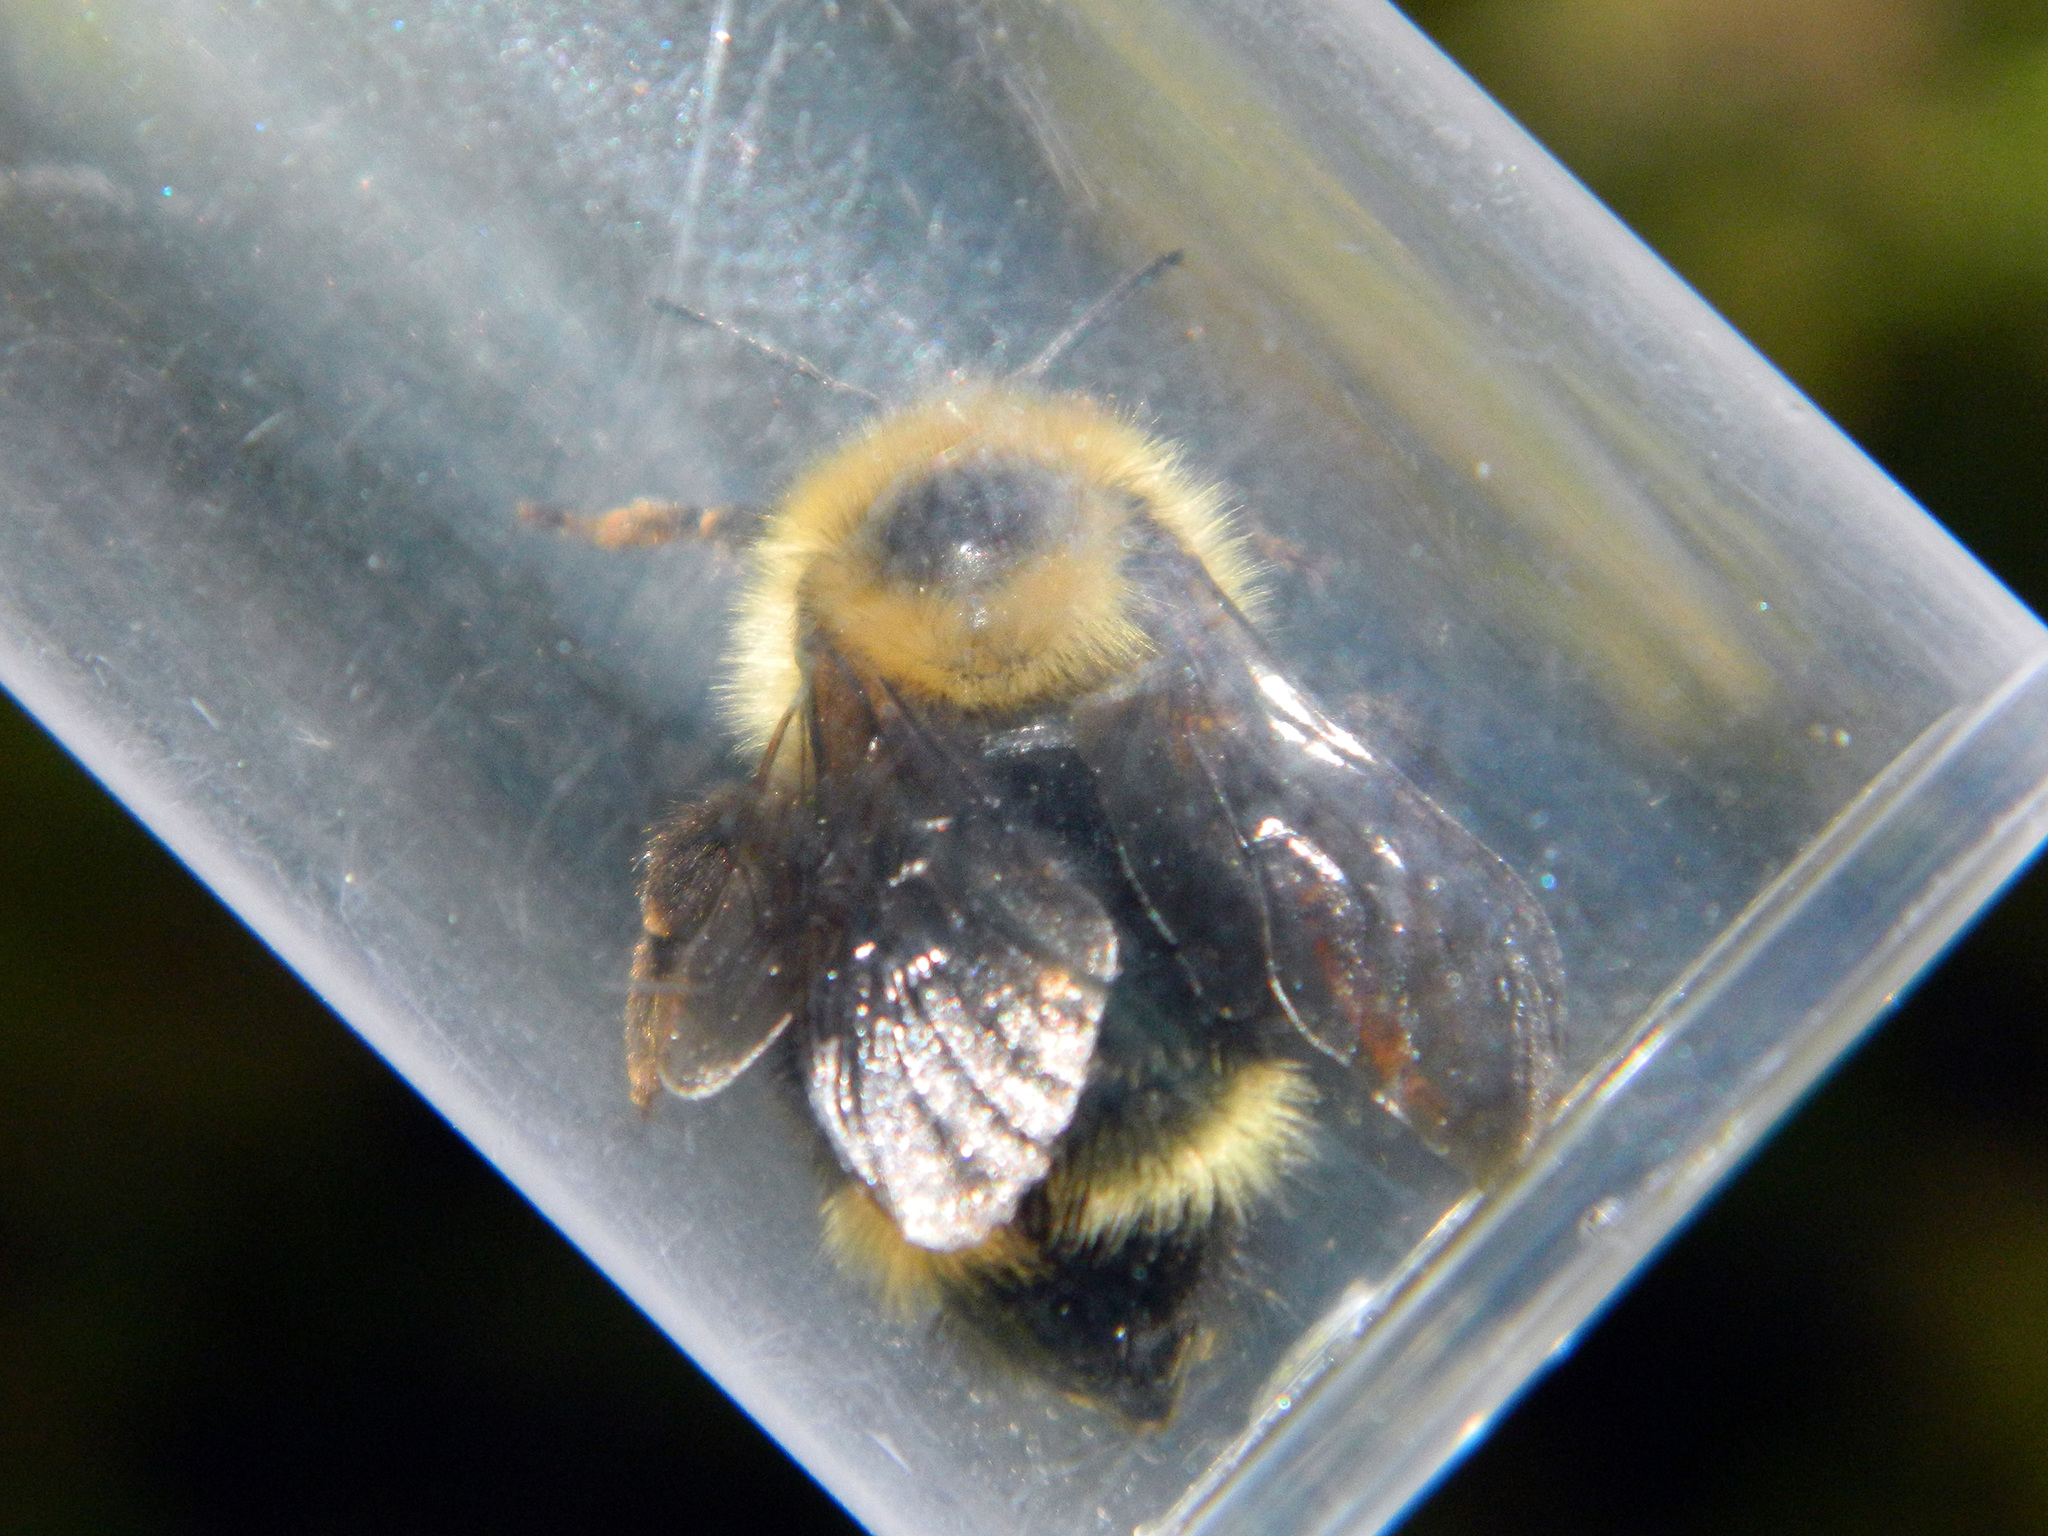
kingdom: Animalia
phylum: Arthropoda
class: Insecta
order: Hymenoptera
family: Apidae
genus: Bombus
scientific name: Bombus flavidus
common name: Fernald cuckoo bumble bee
